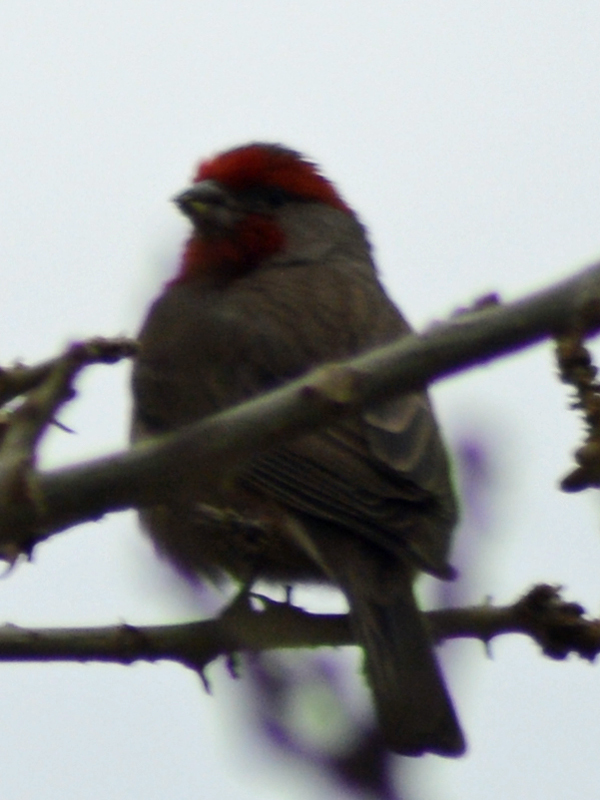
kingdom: Animalia
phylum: Chordata
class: Aves
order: Passeriformes
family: Fringillidae
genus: Haemorhous
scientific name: Haemorhous mexicanus
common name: House finch
